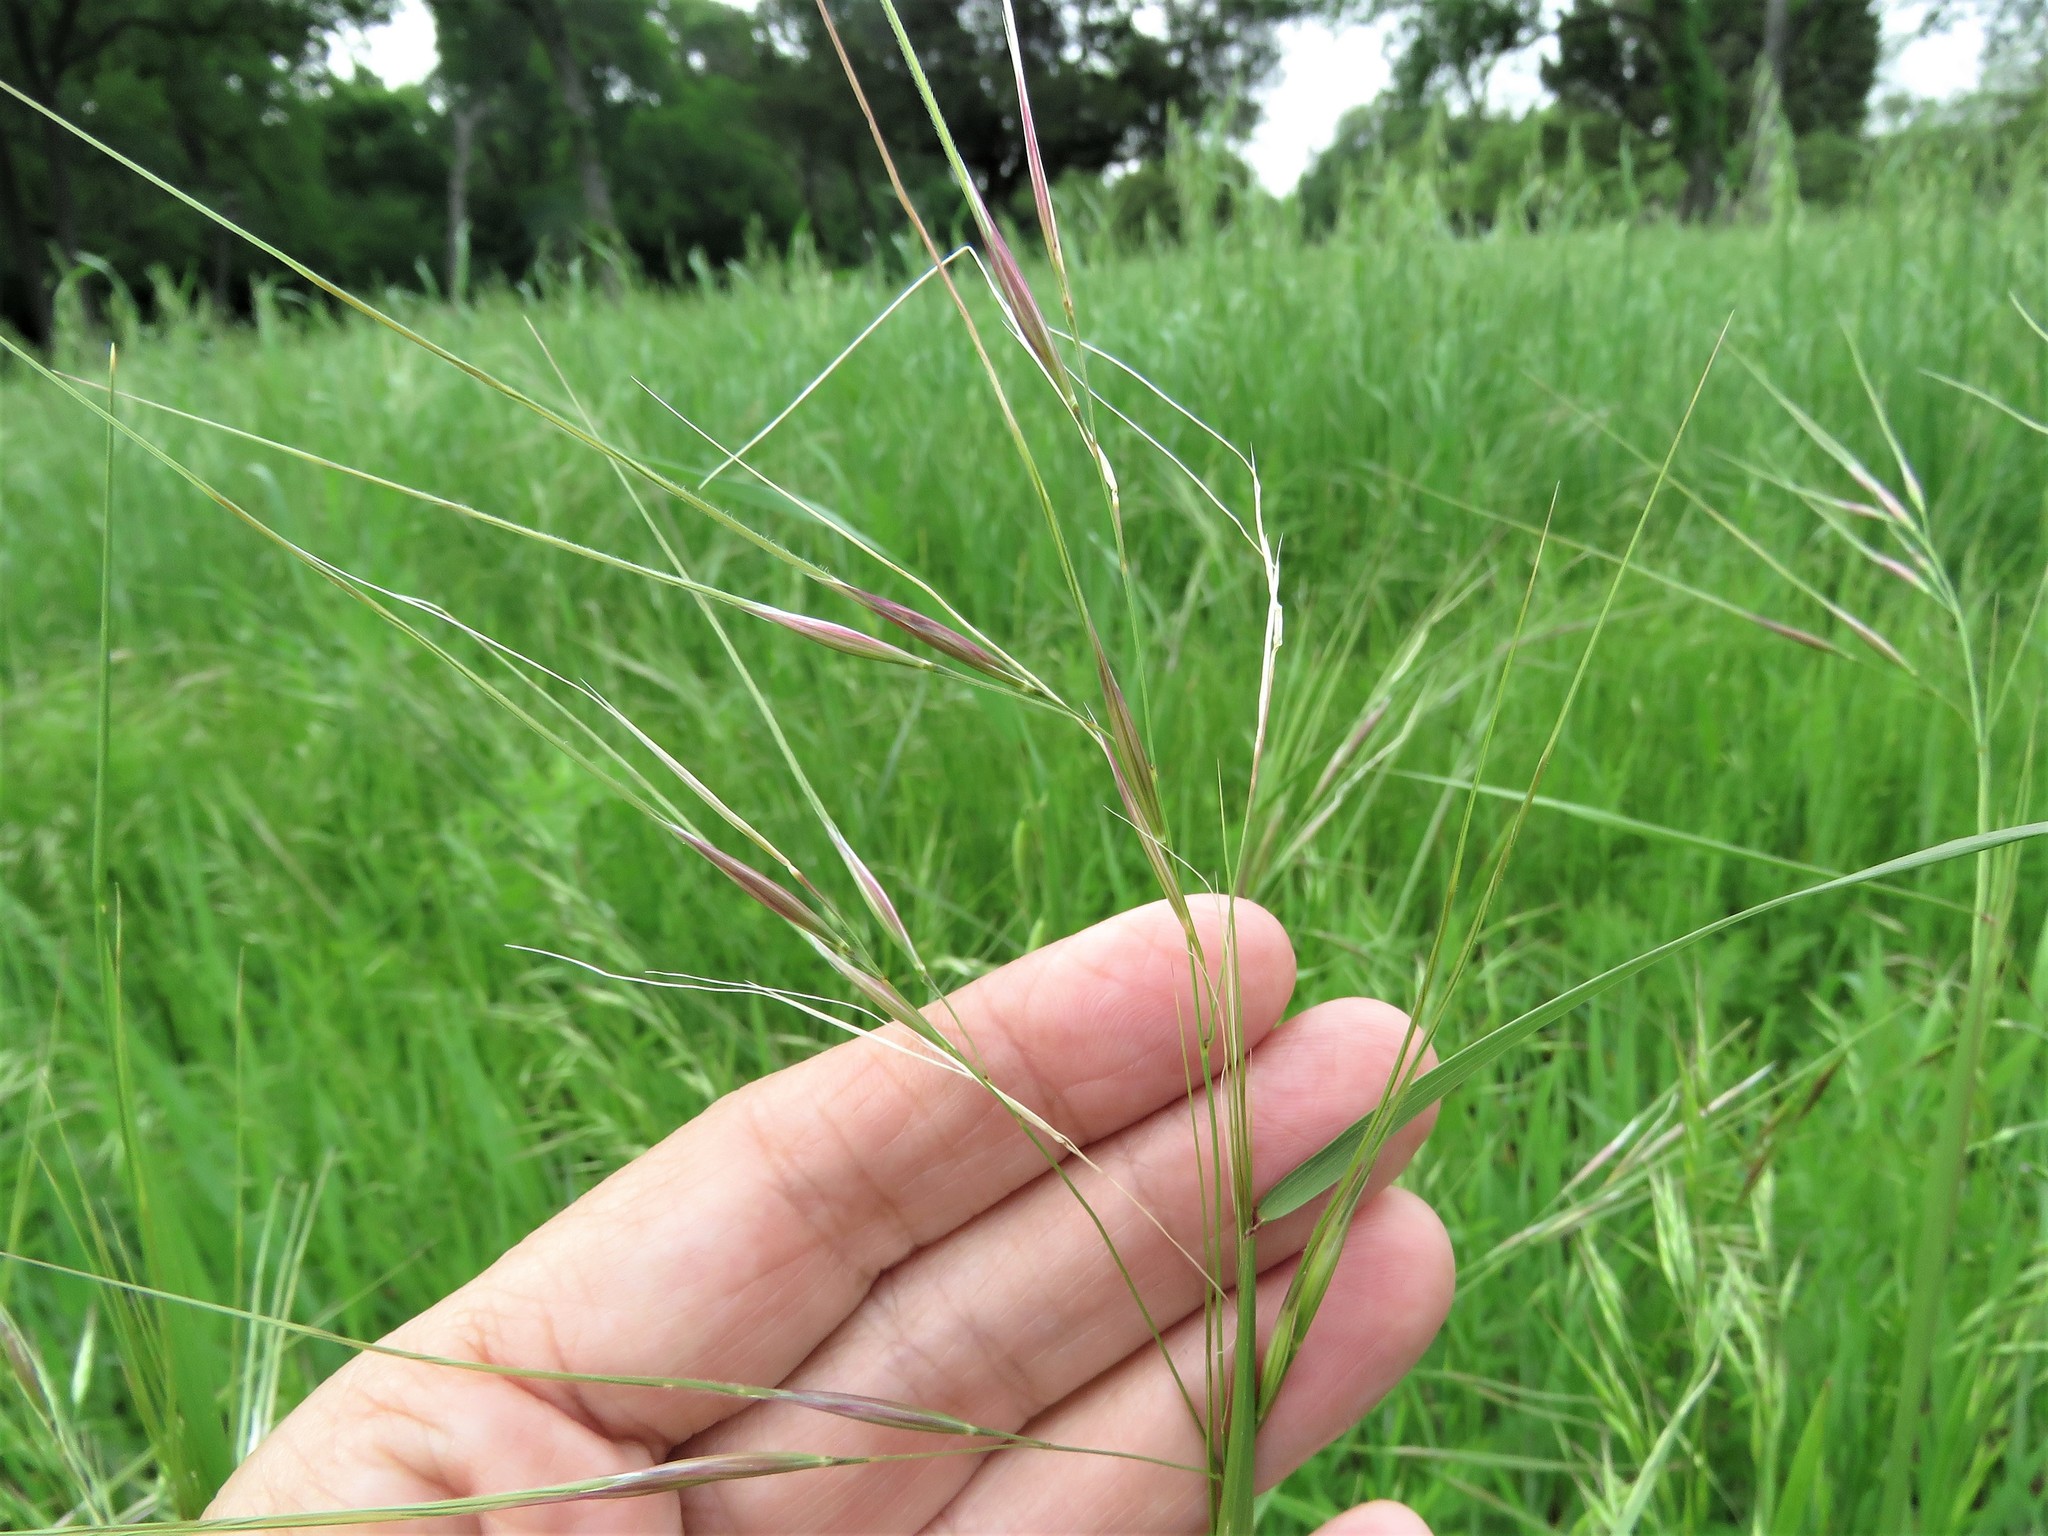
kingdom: Plantae
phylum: Tracheophyta
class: Liliopsida
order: Poales
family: Poaceae
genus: Nassella
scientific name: Nassella leucotricha
